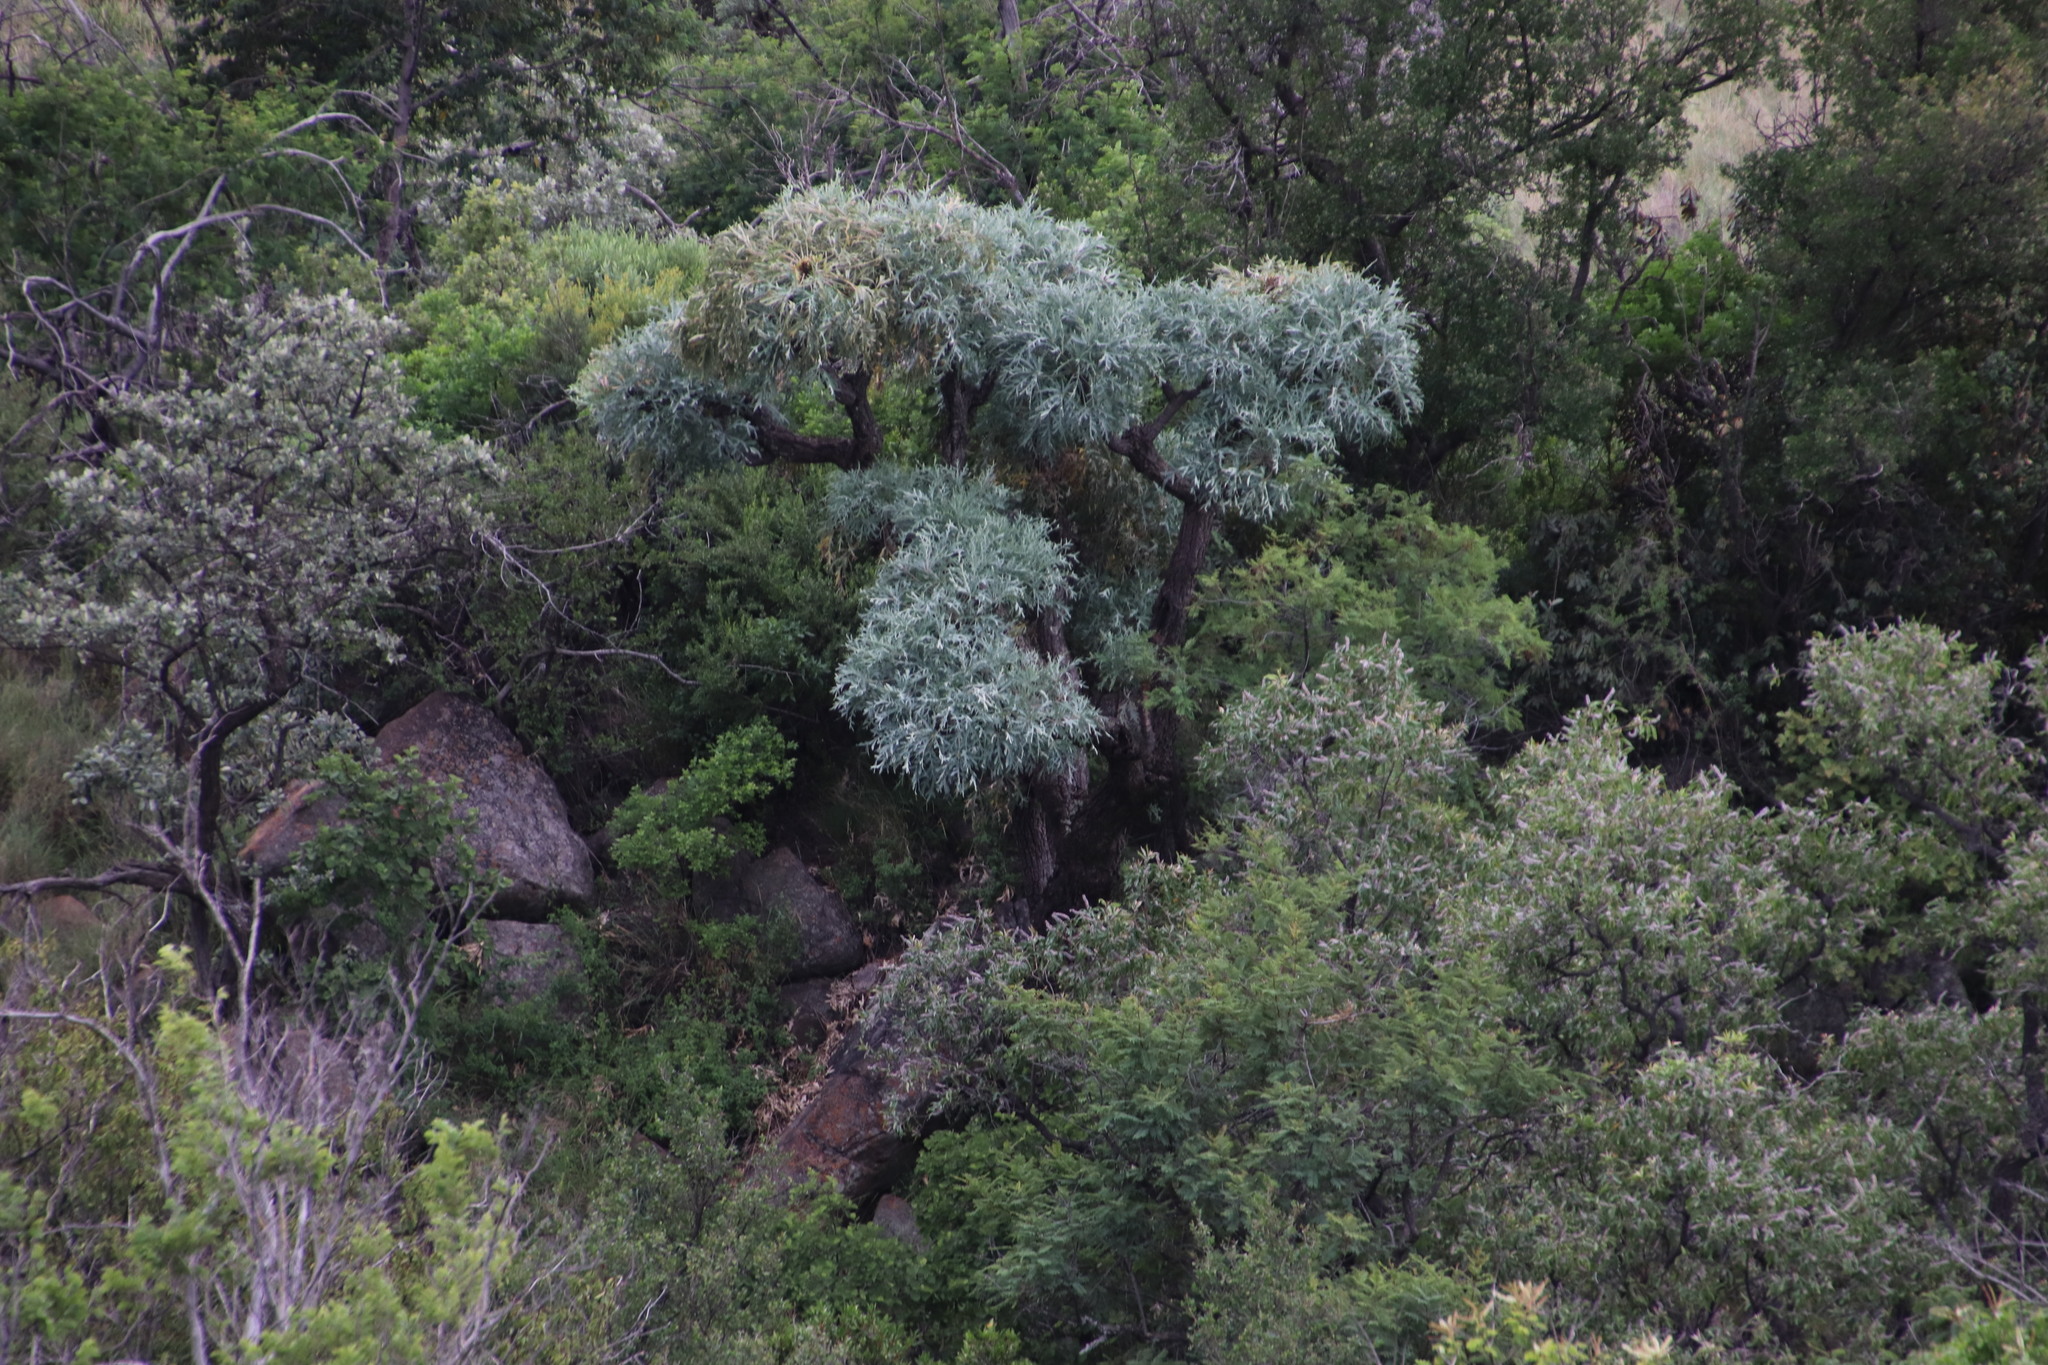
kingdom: Plantae
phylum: Tracheophyta
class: Magnoliopsida
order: Apiales
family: Araliaceae
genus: Cussonia
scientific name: Cussonia paniculata
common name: Cabbagetree
